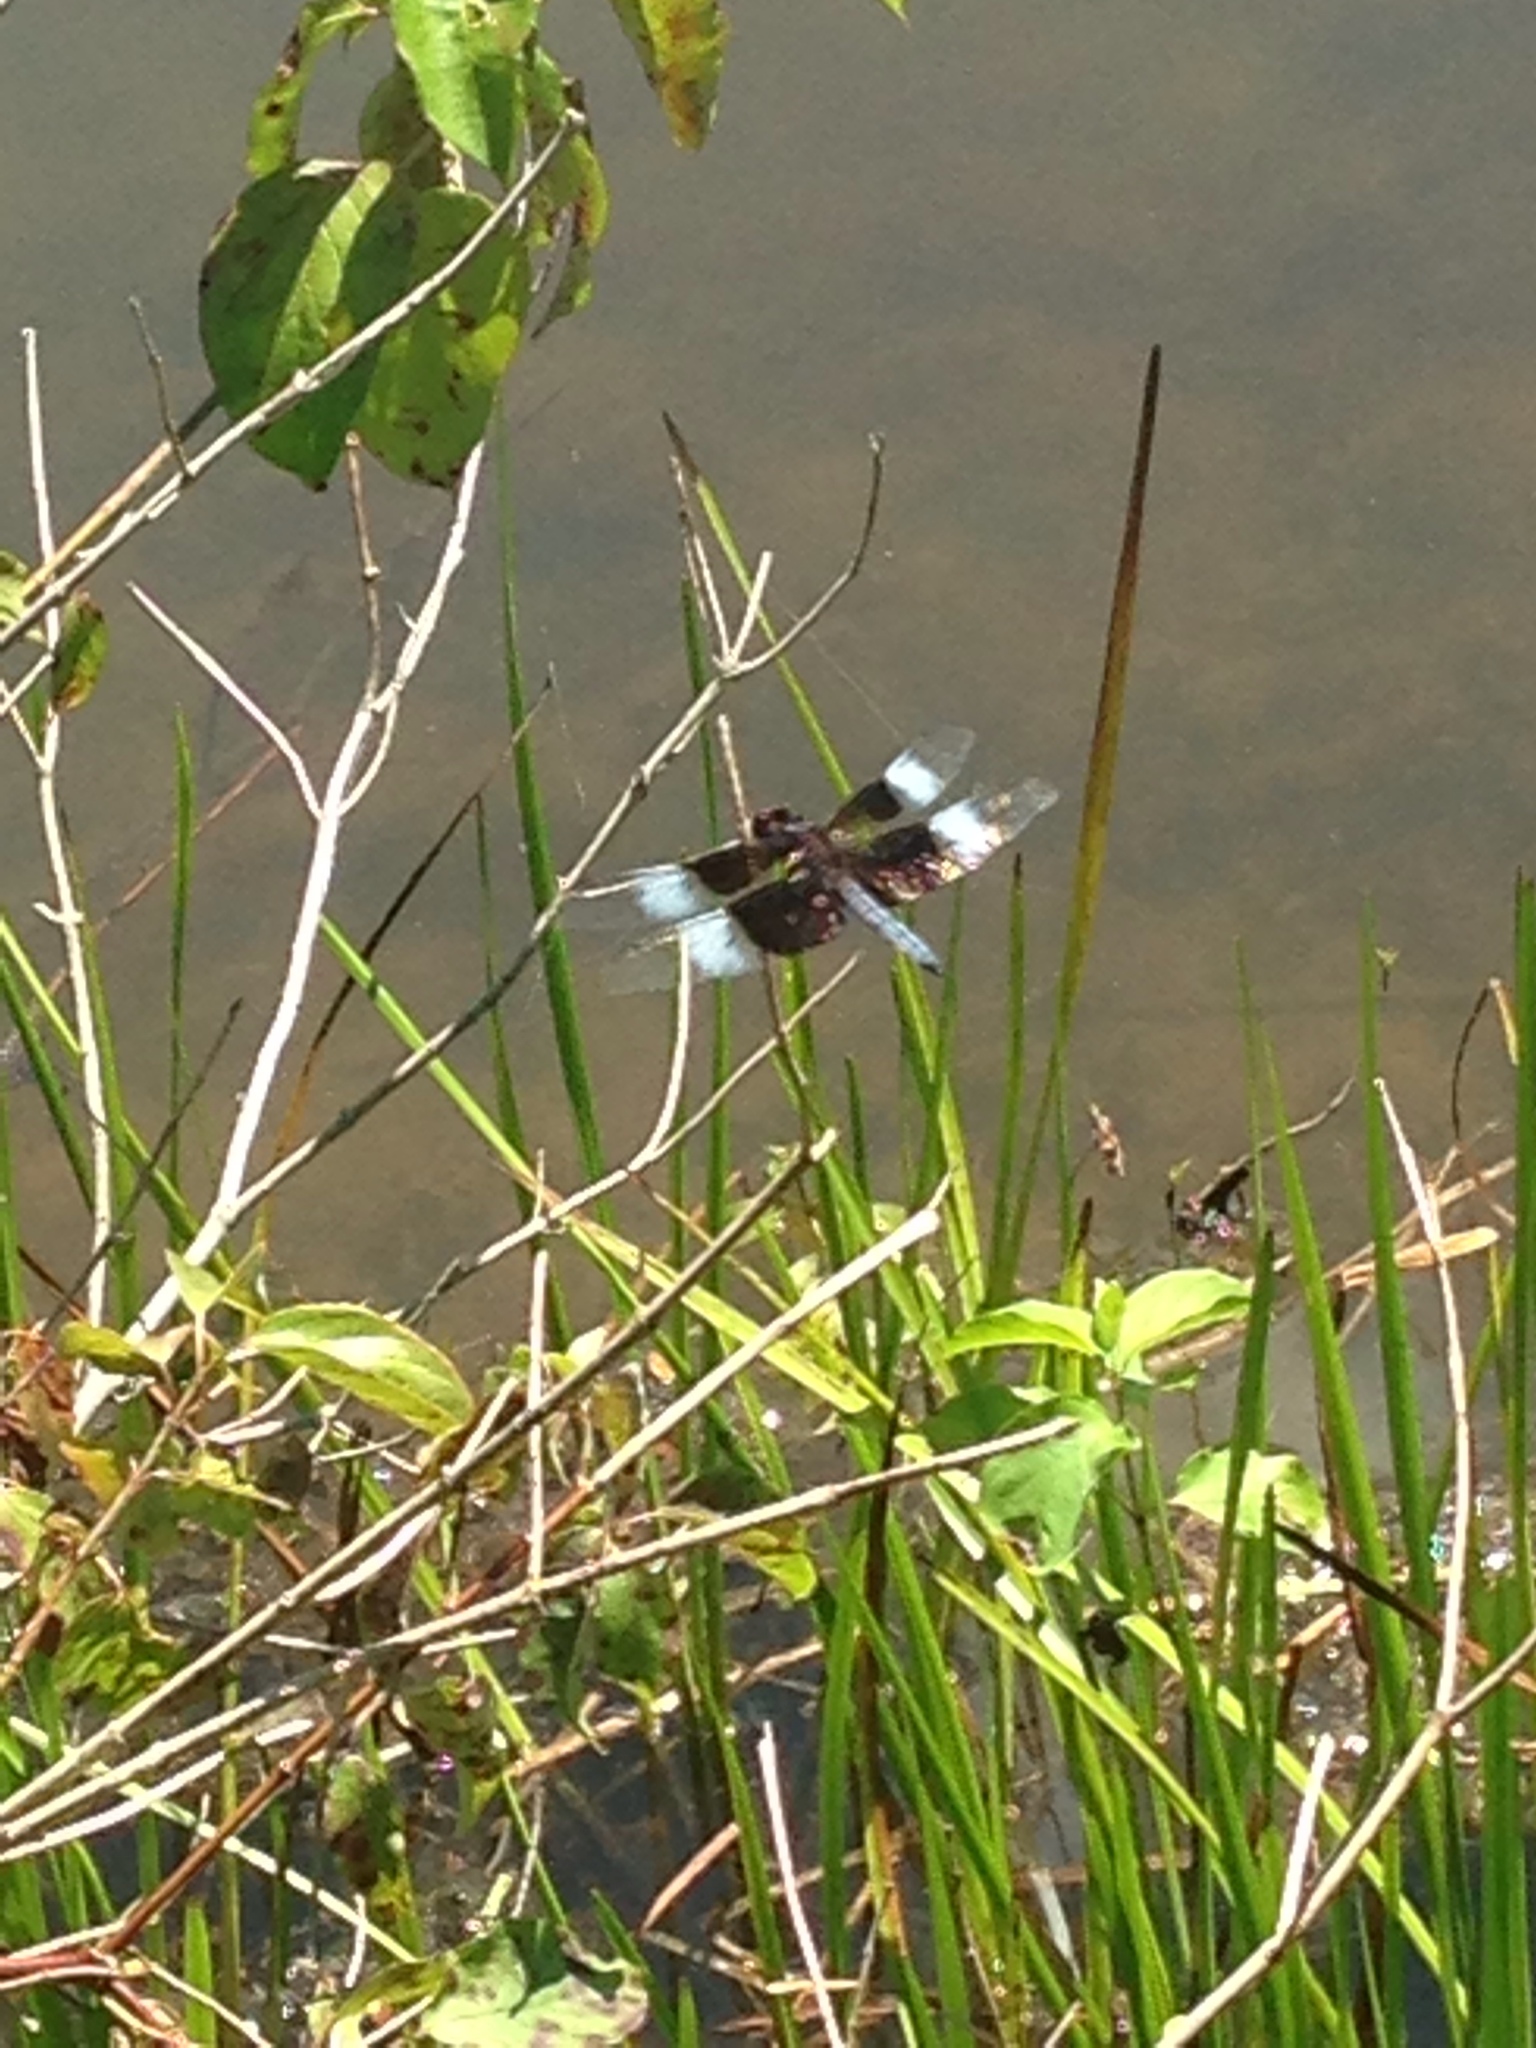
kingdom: Animalia
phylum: Arthropoda
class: Insecta
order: Odonata
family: Libellulidae
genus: Libellula
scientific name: Libellula luctuosa
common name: Widow skimmer
